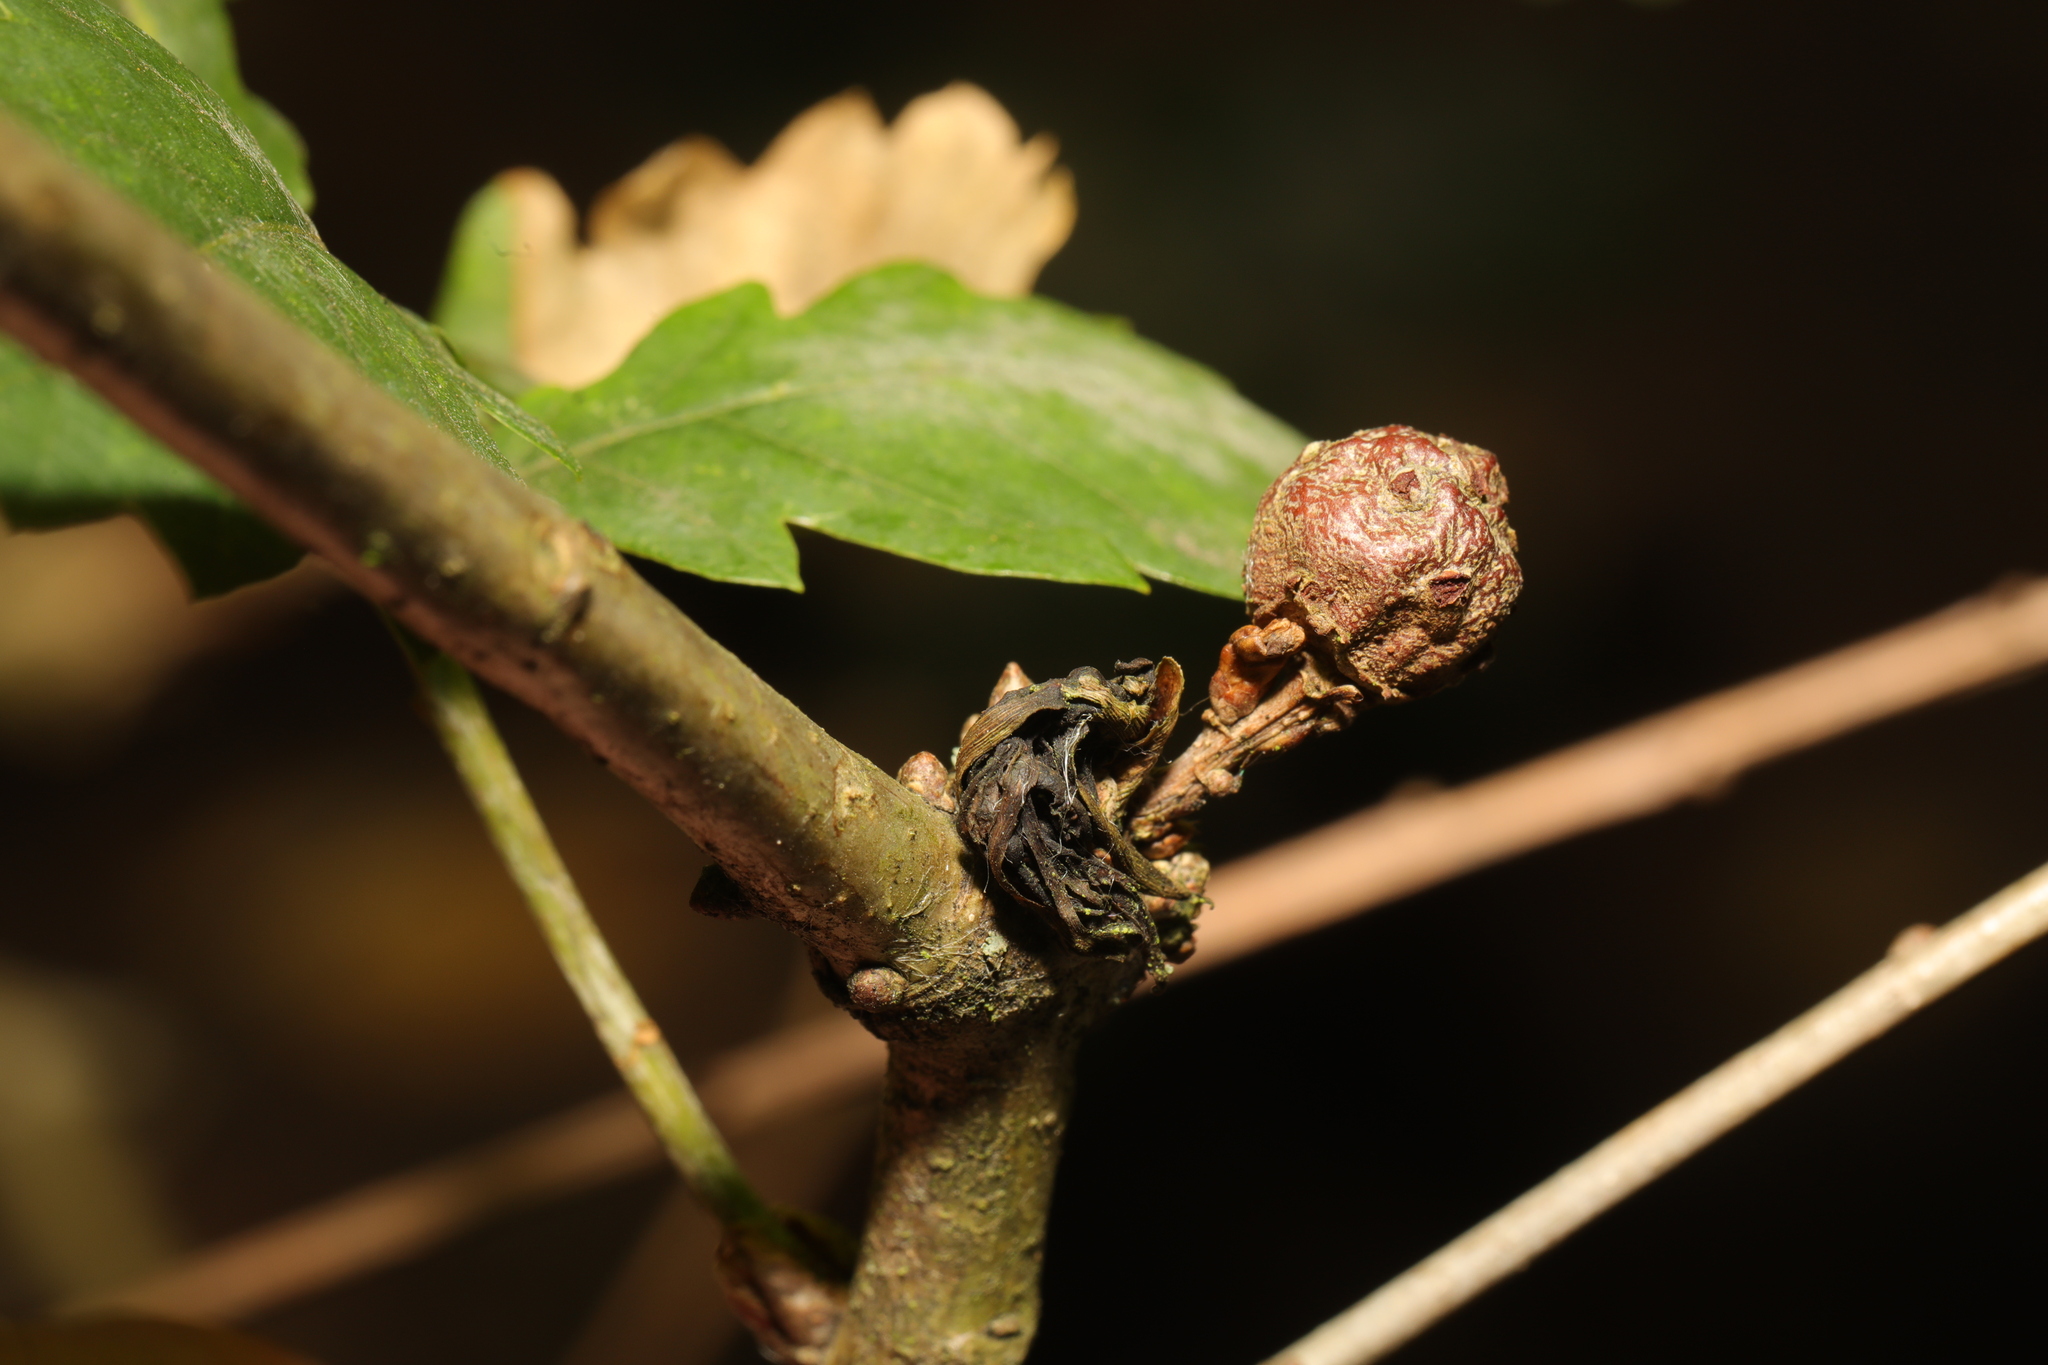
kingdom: Animalia
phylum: Arthropoda
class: Insecta
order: Hymenoptera
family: Cynipidae
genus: Andricus
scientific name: Andricus lignicolus
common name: Cola-nut gall
